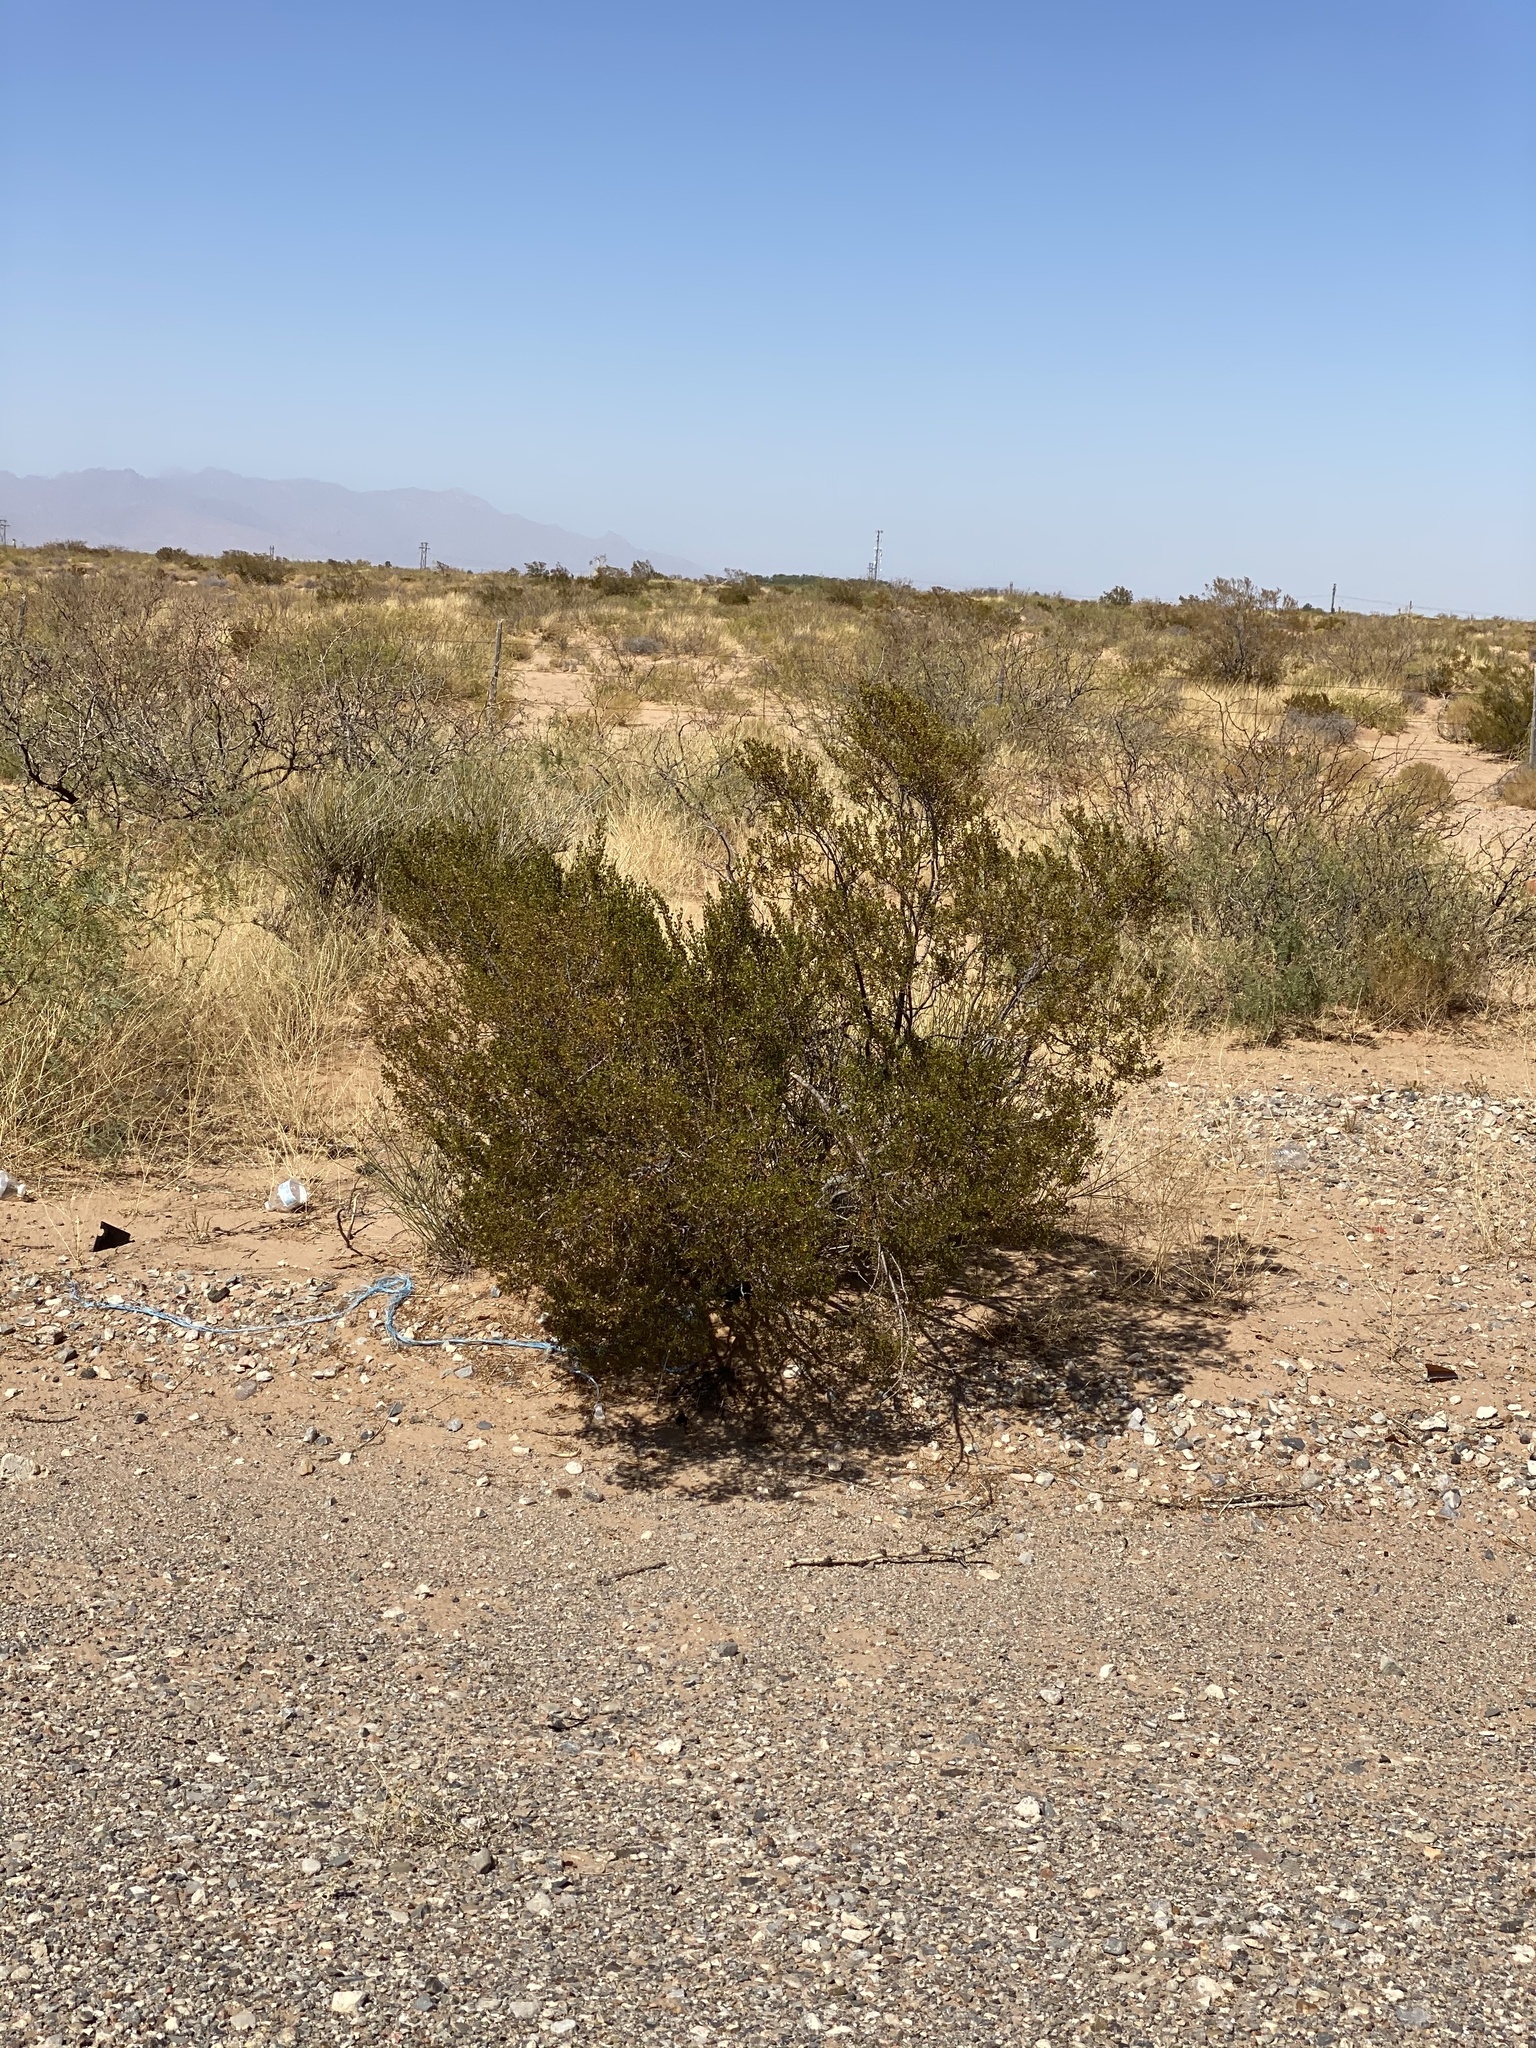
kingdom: Plantae
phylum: Tracheophyta
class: Magnoliopsida
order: Zygophyllales
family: Zygophyllaceae
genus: Larrea
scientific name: Larrea tridentata
